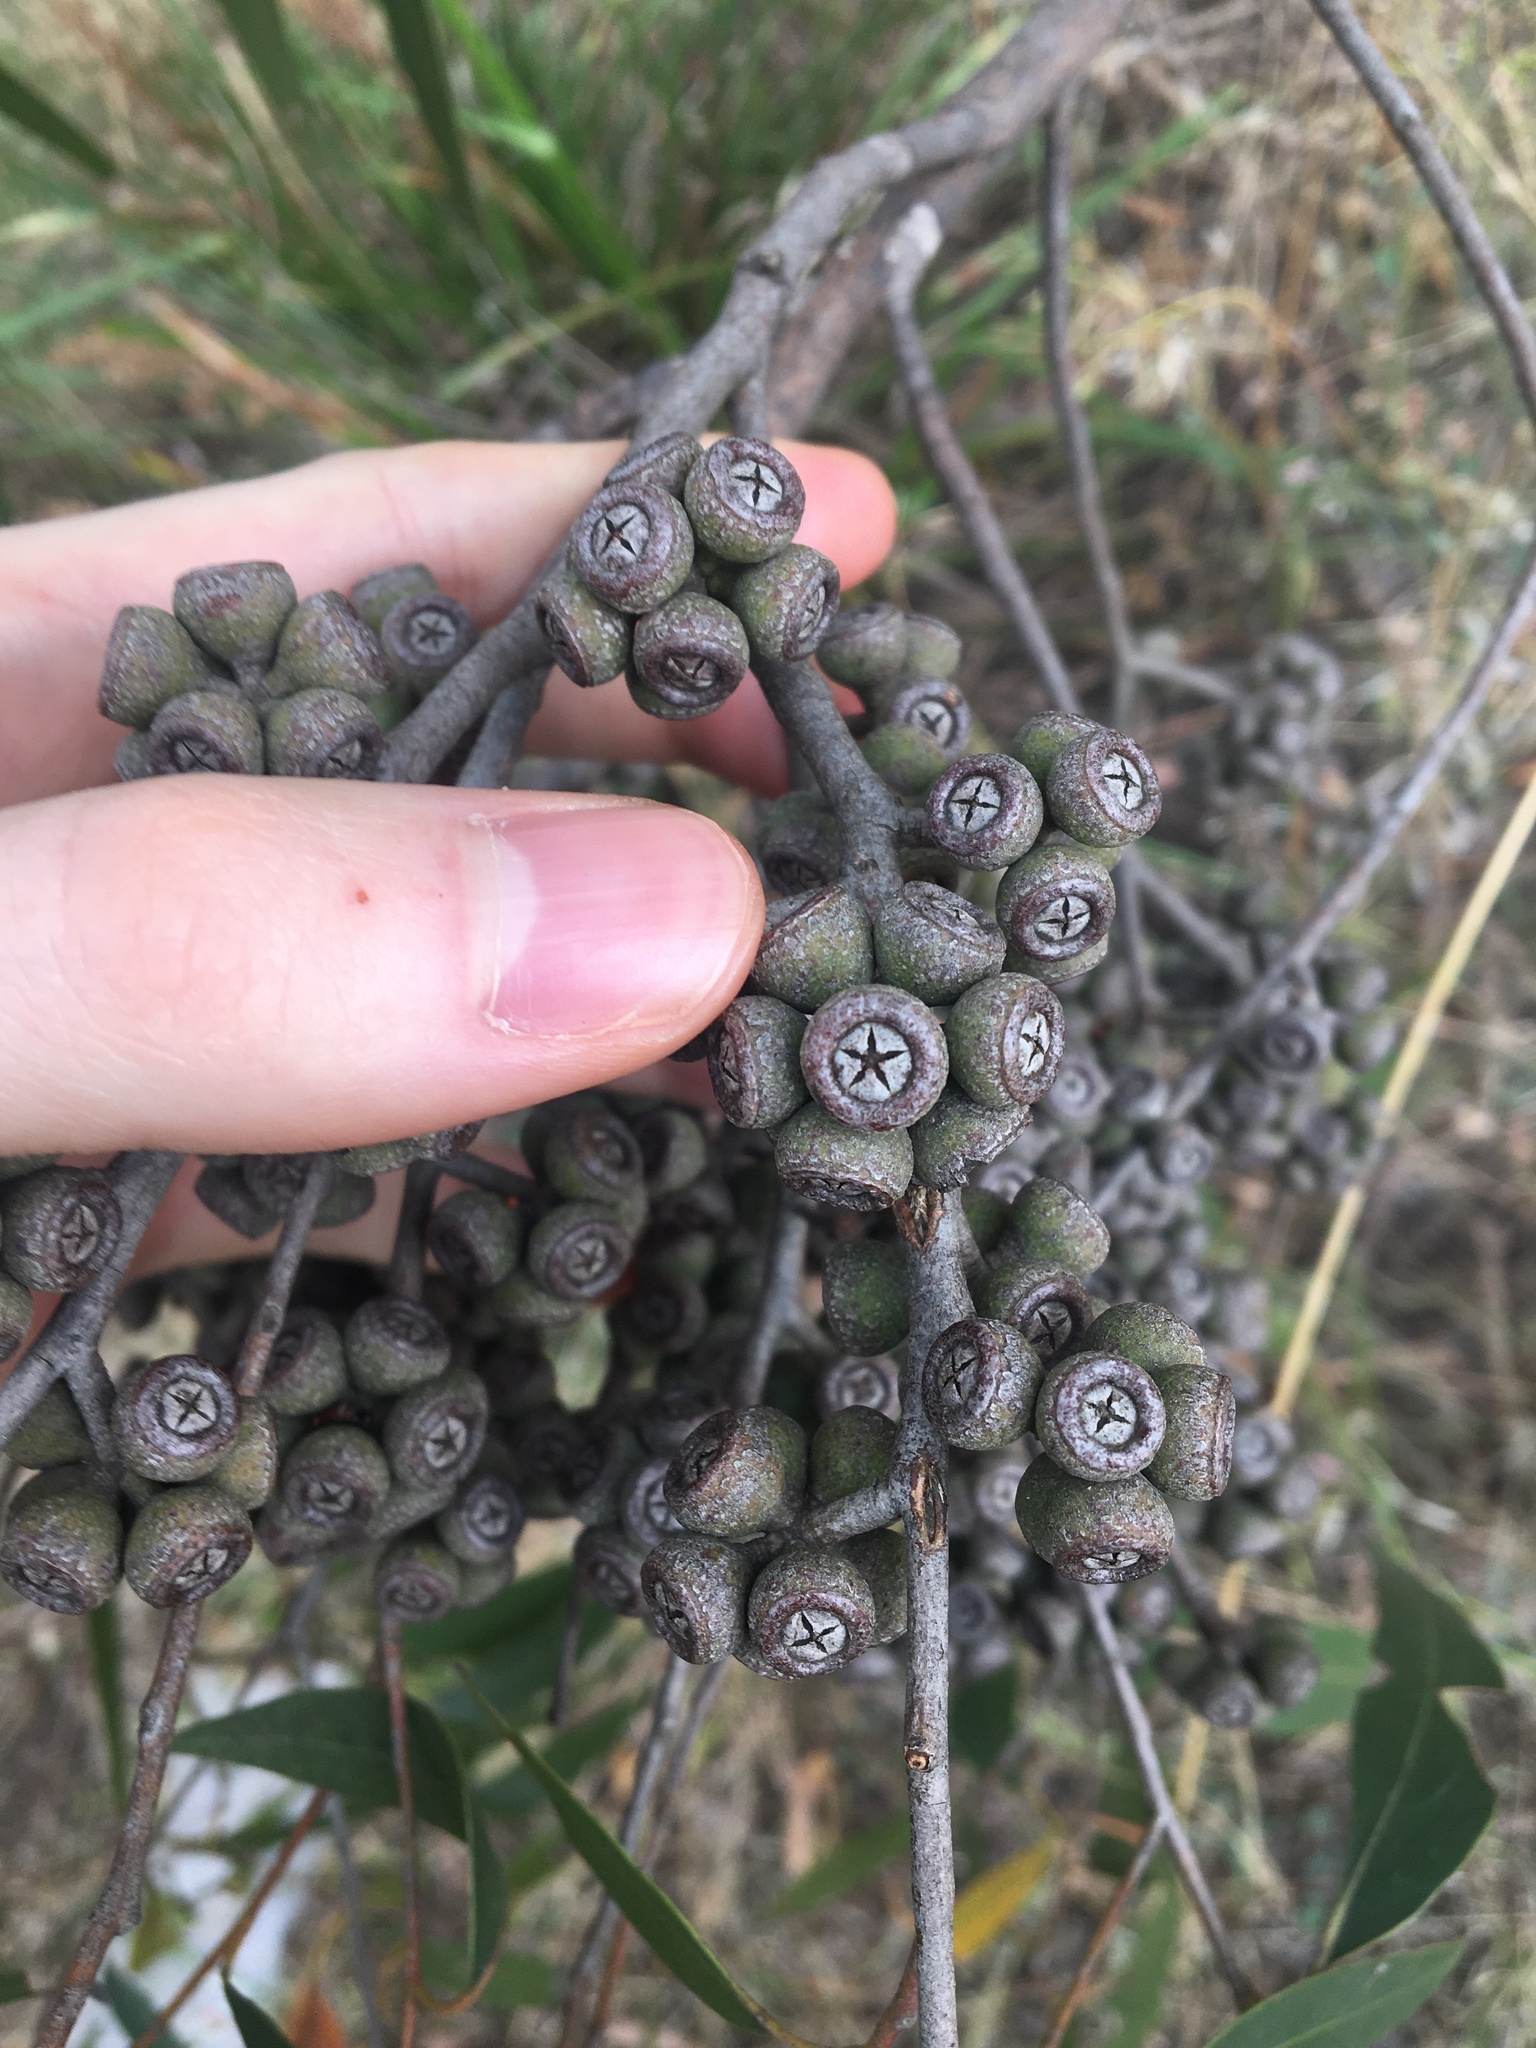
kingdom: Plantae
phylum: Tracheophyta
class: Magnoliopsida
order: Myrtales
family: Myrtaceae
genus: Eucalyptus
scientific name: Eucalyptus eugenioides
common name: Narrow-leaved-stringybark
